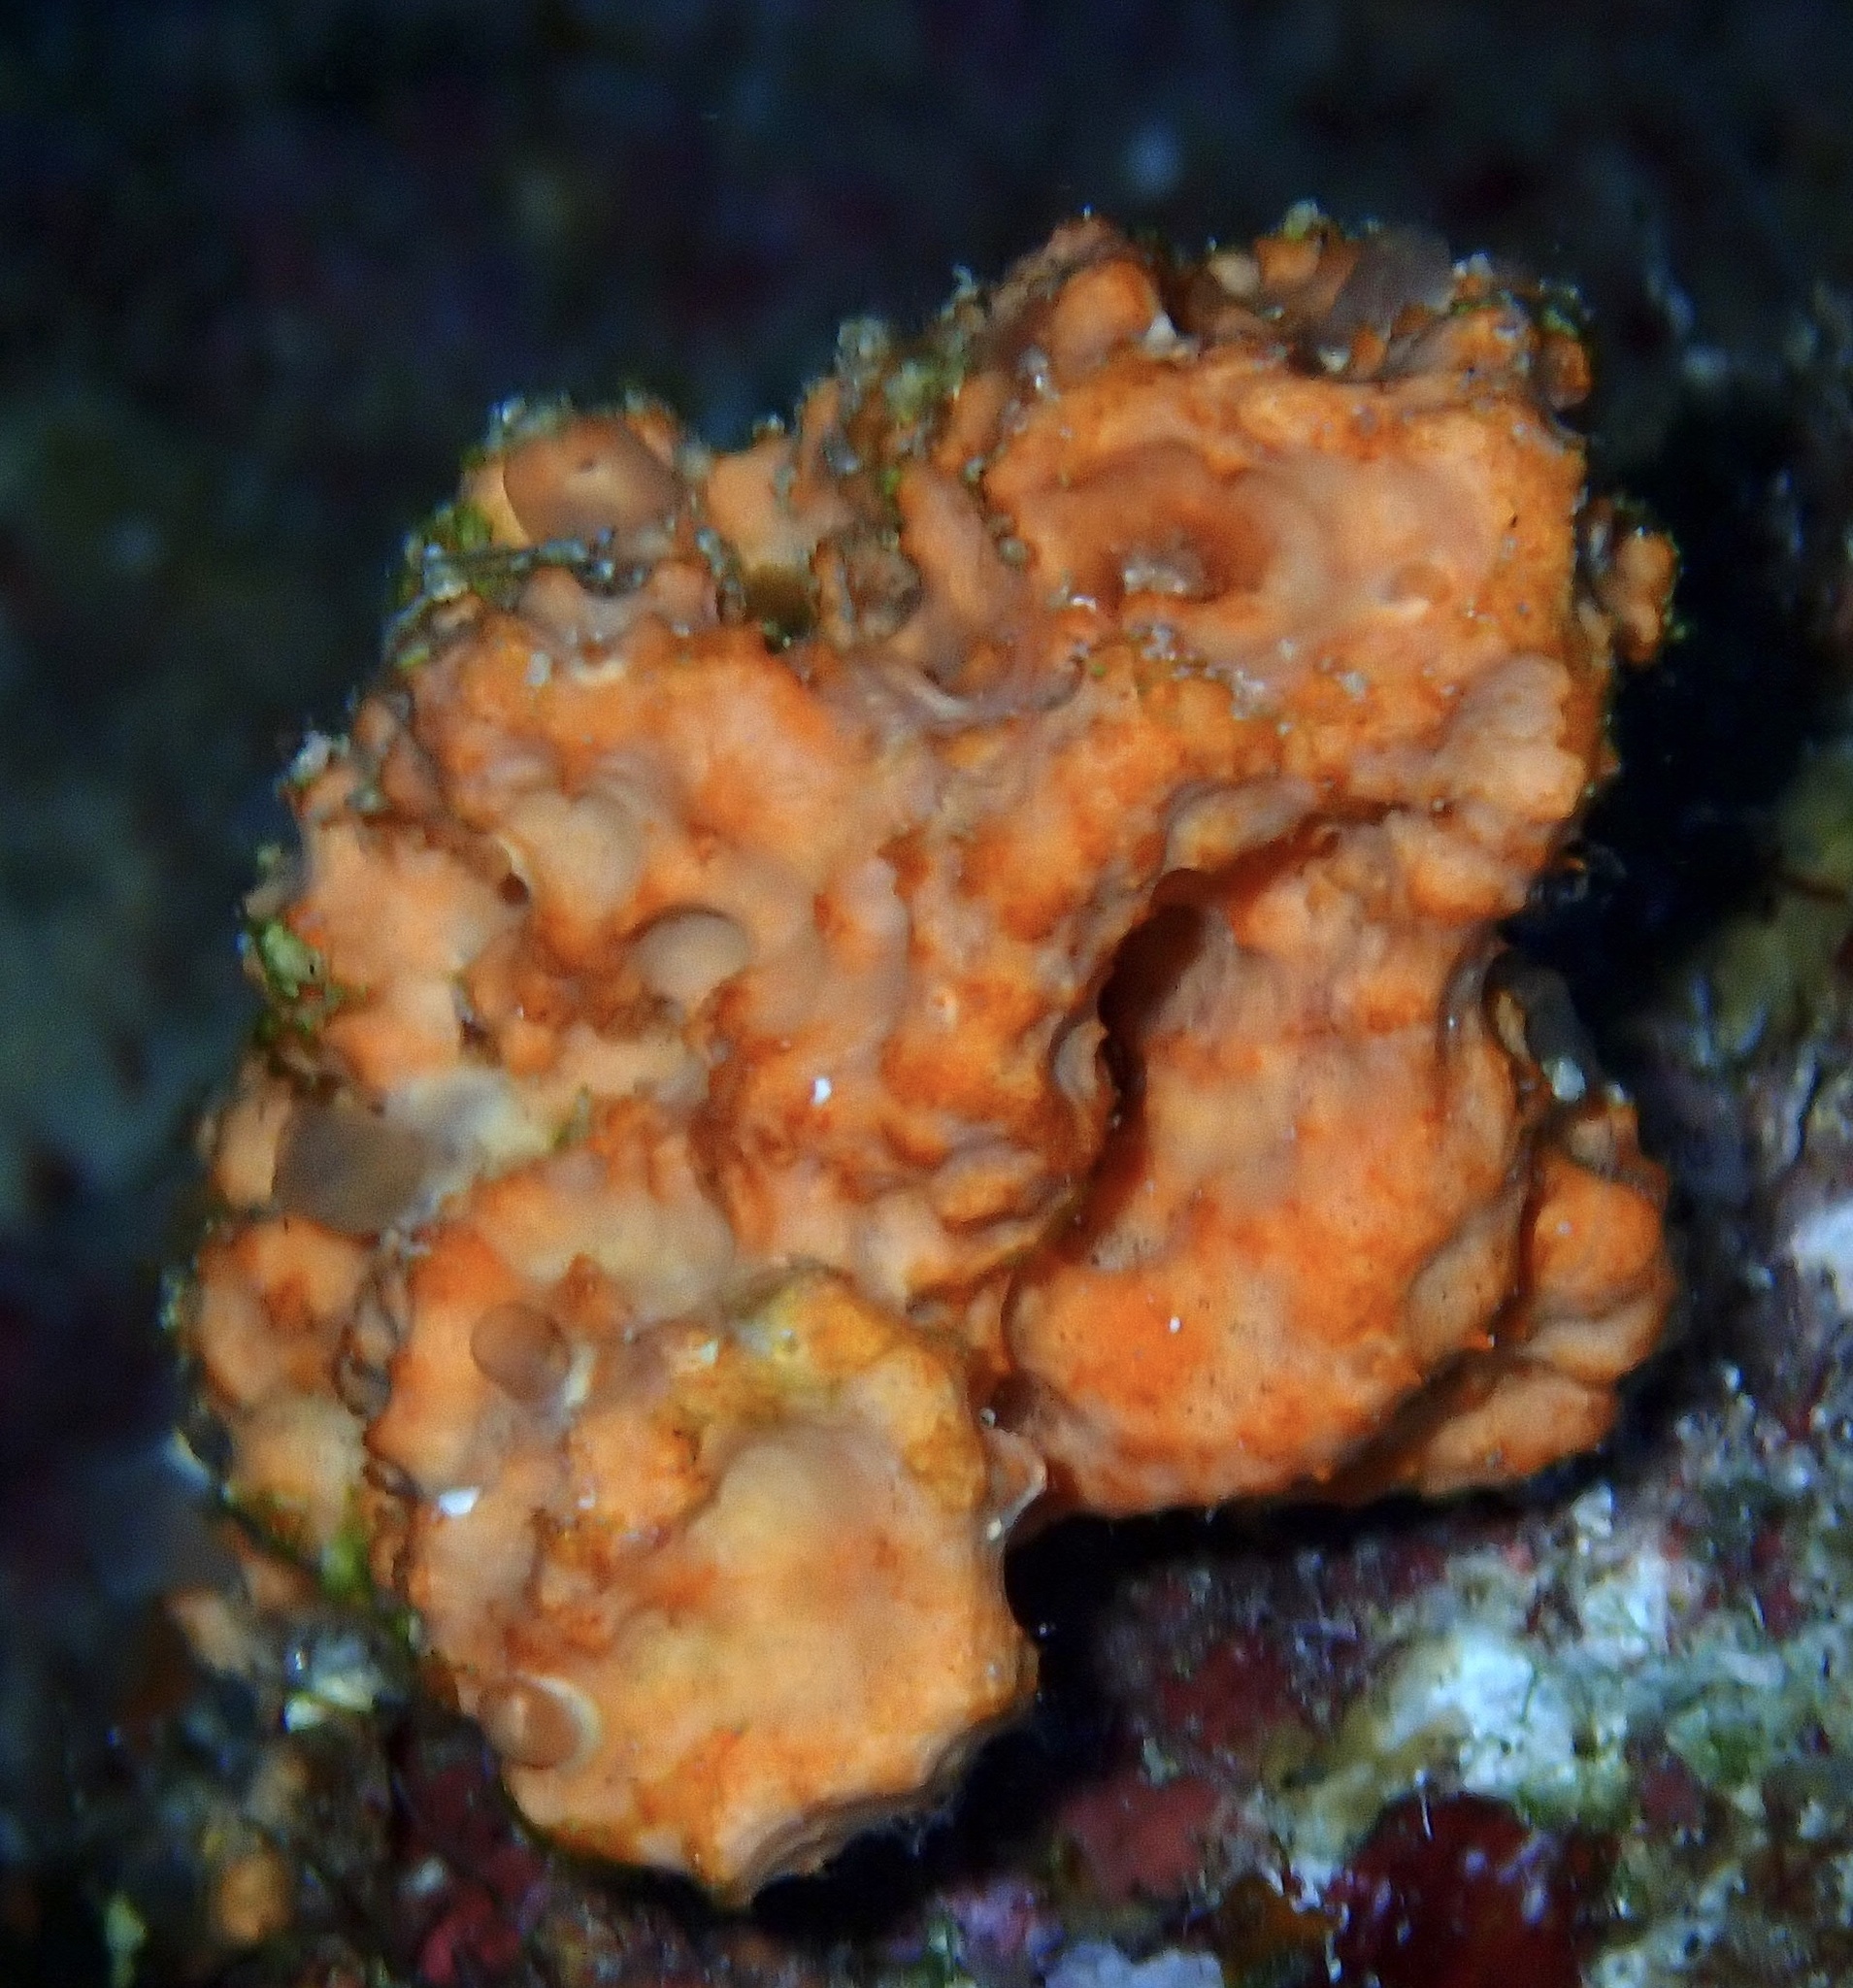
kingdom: Animalia
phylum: Porifera
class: Demospongiae
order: Scopalinida
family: Scopalinidae
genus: Stylissa
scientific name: Stylissa carteri
